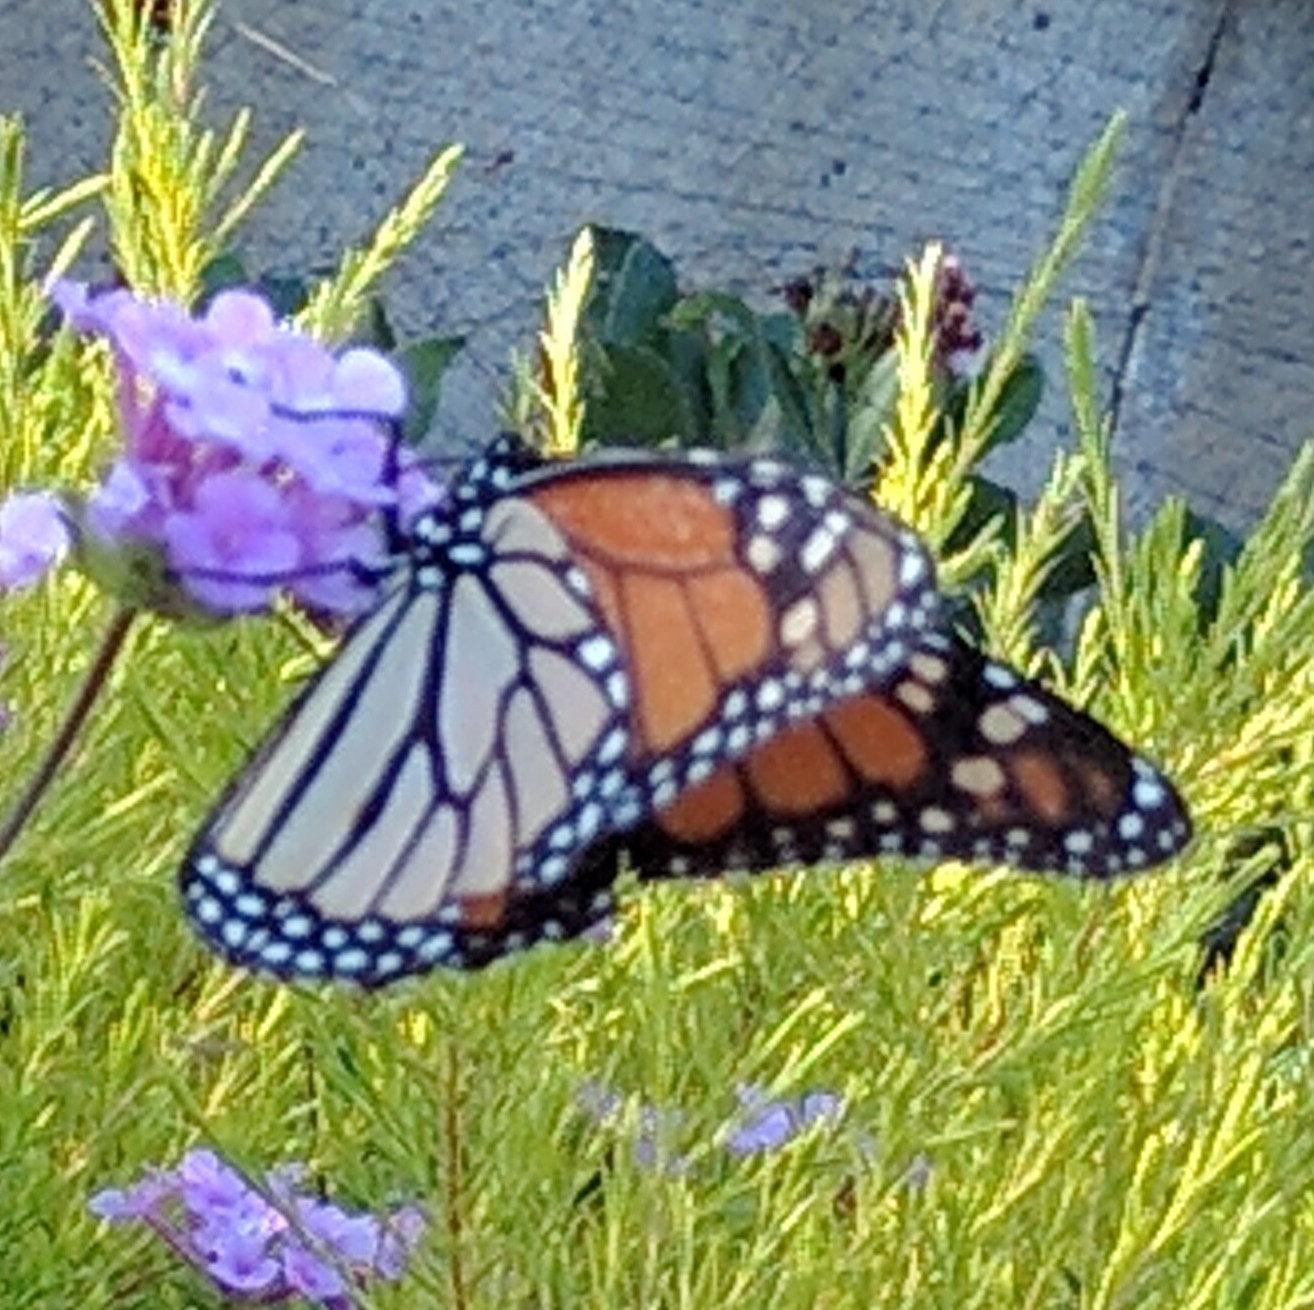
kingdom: Animalia
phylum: Arthropoda
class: Insecta
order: Lepidoptera
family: Nymphalidae
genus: Danaus
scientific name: Danaus plexippus
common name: Monarch
